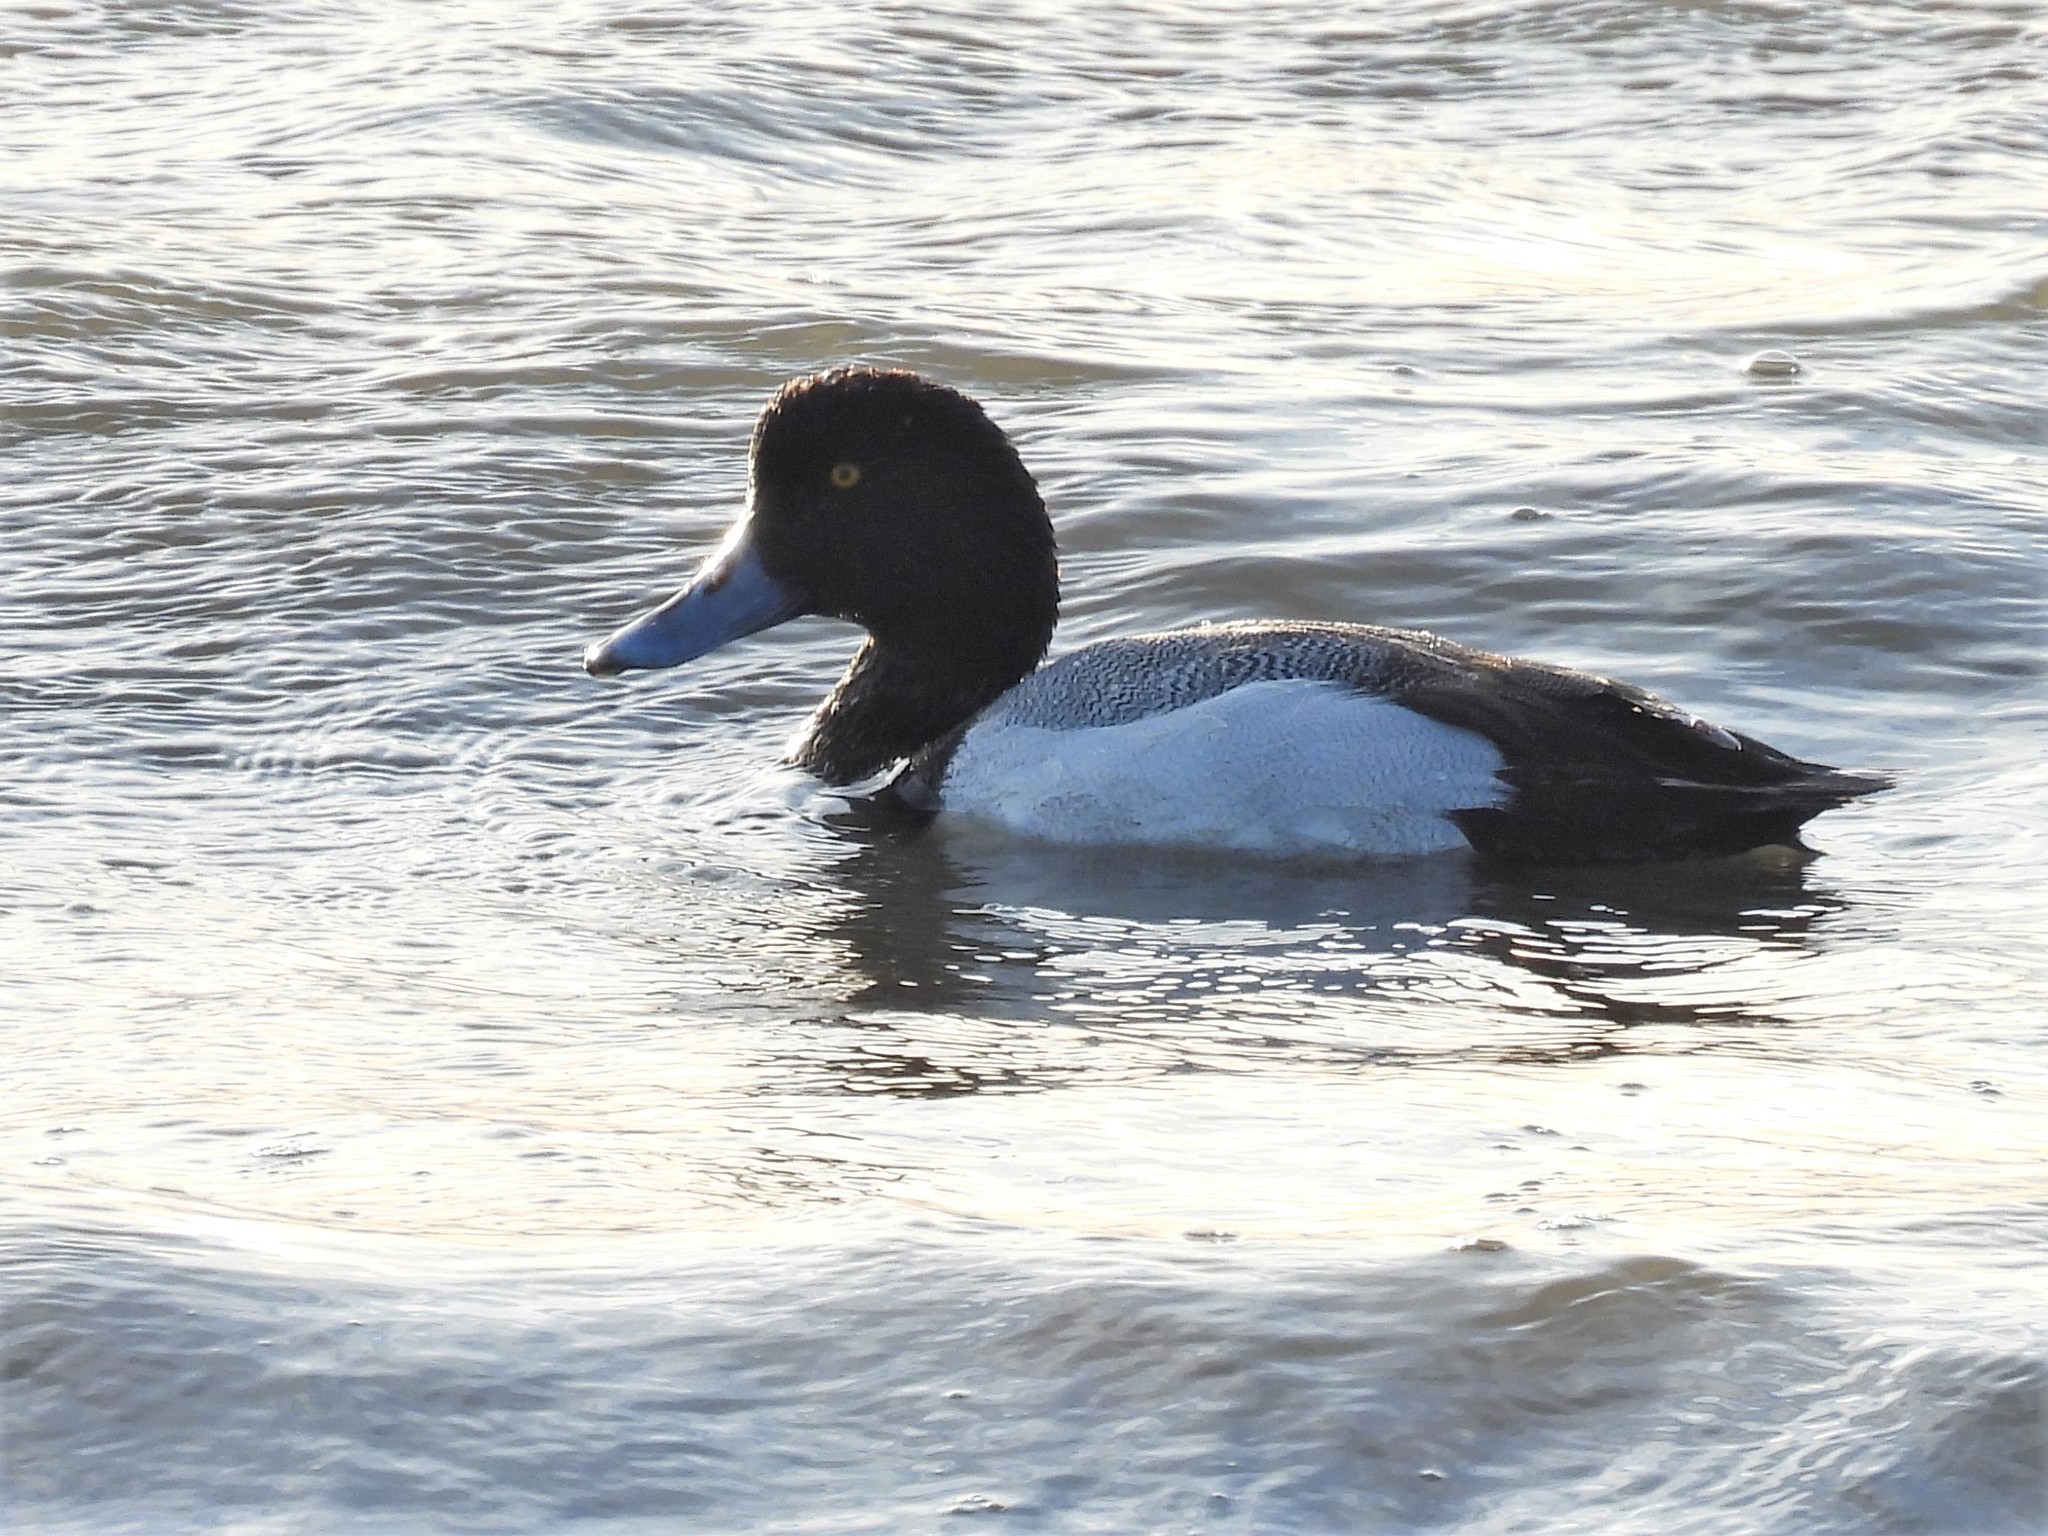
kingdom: Animalia
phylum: Chordata
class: Aves
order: Anseriformes
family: Anatidae
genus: Aythya
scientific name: Aythya marila
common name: Greater scaup
